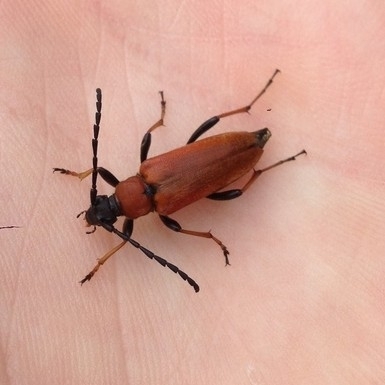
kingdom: Animalia
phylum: Arthropoda
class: Insecta
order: Coleoptera
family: Cerambycidae
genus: Stictoleptura
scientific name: Stictoleptura rubra
